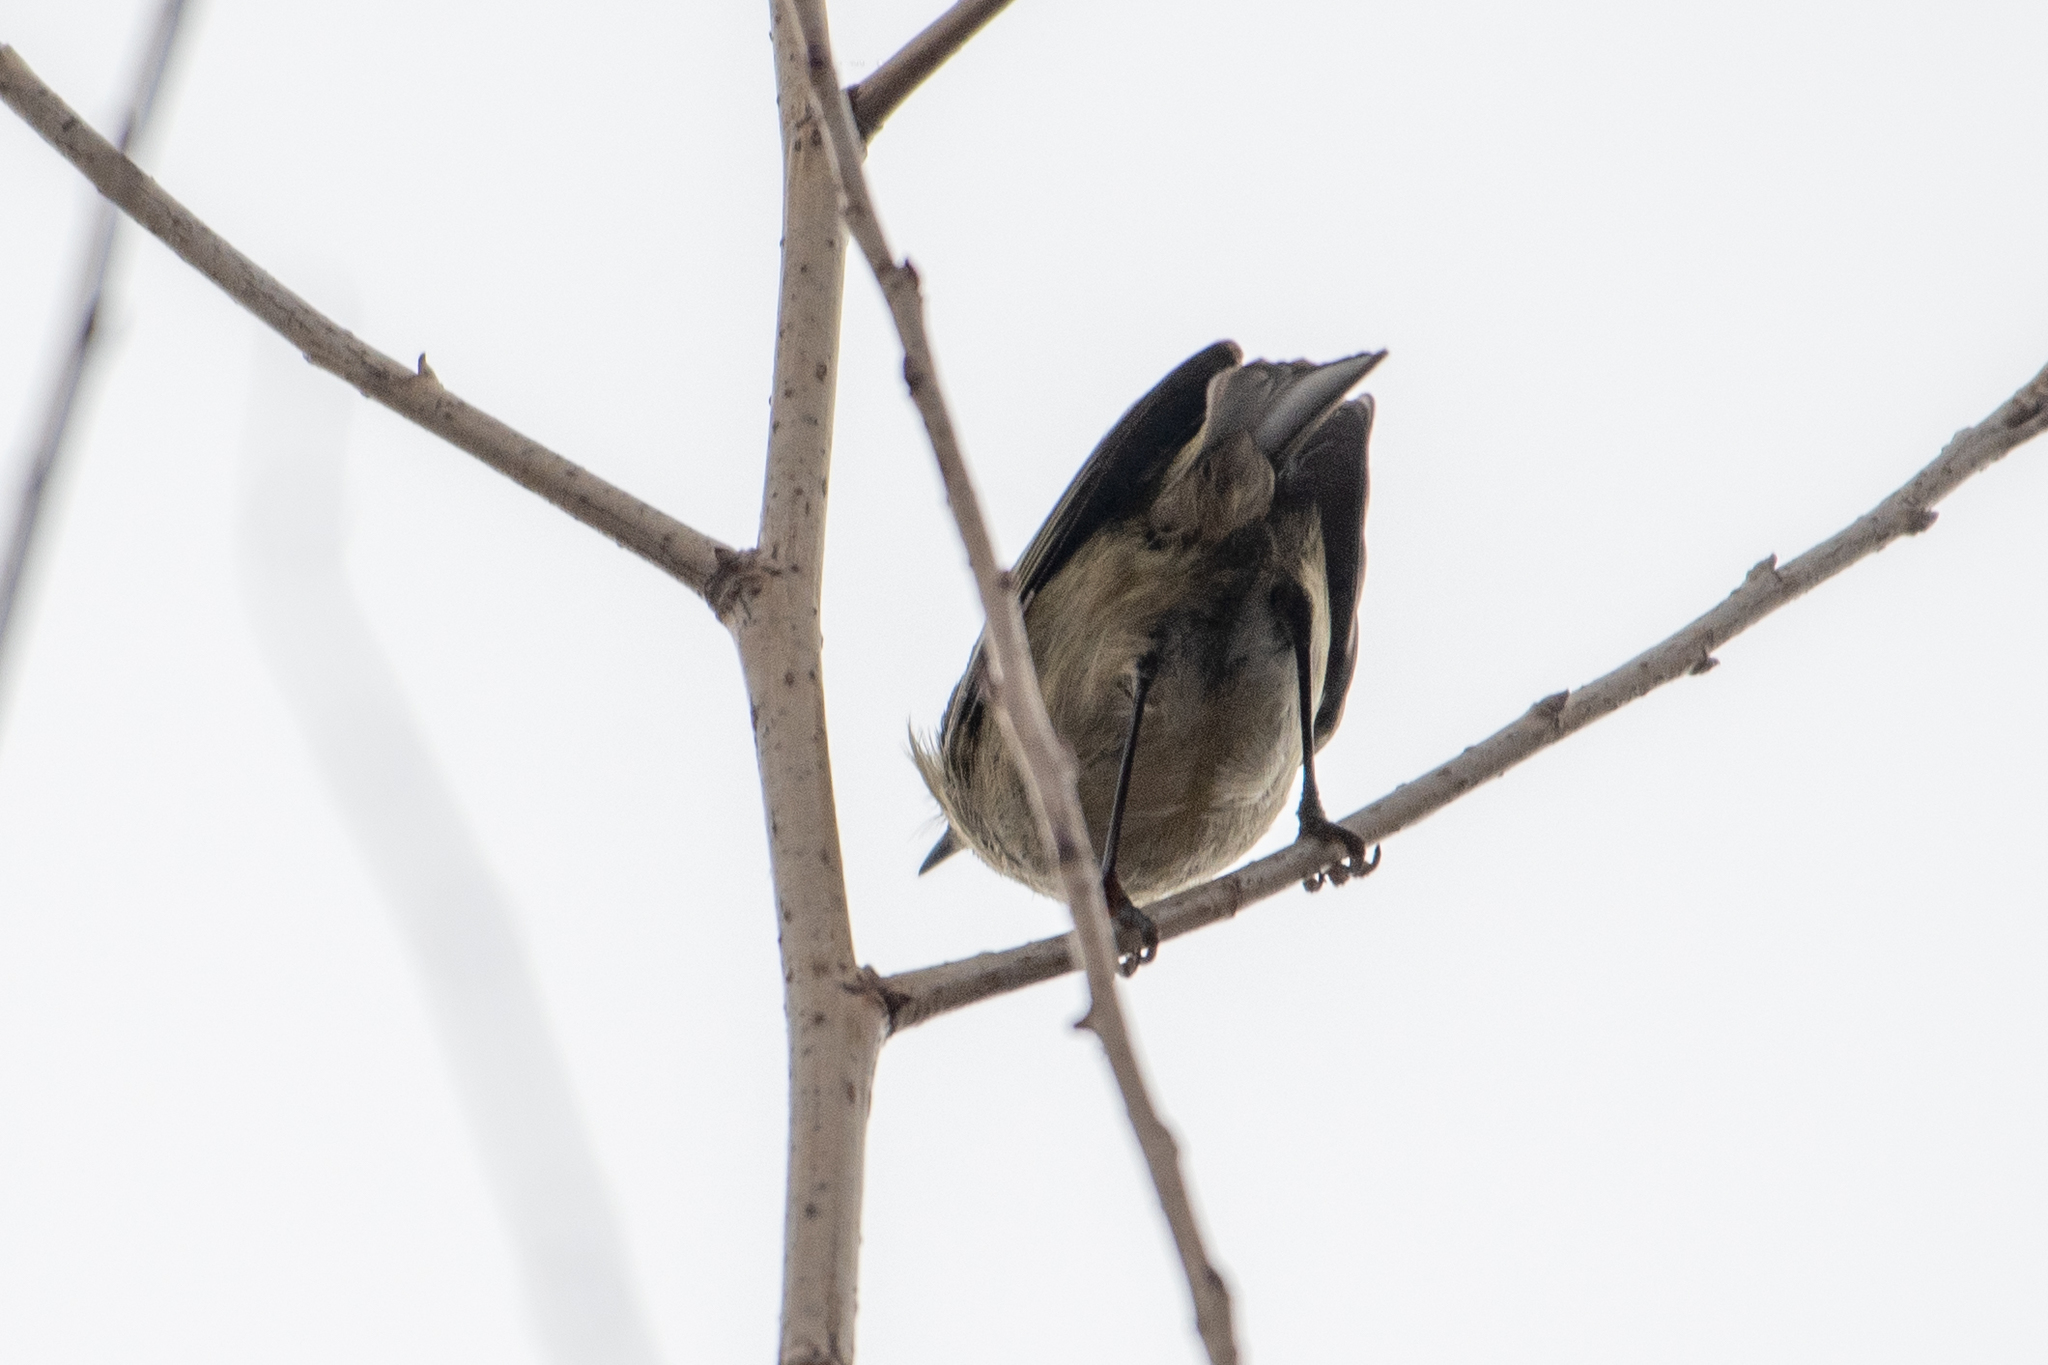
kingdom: Animalia
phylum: Chordata
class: Aves
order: Passeriformes
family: Regulidae
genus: Regulus
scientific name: Regulus calendula
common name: Ruby-crowned kinglet
